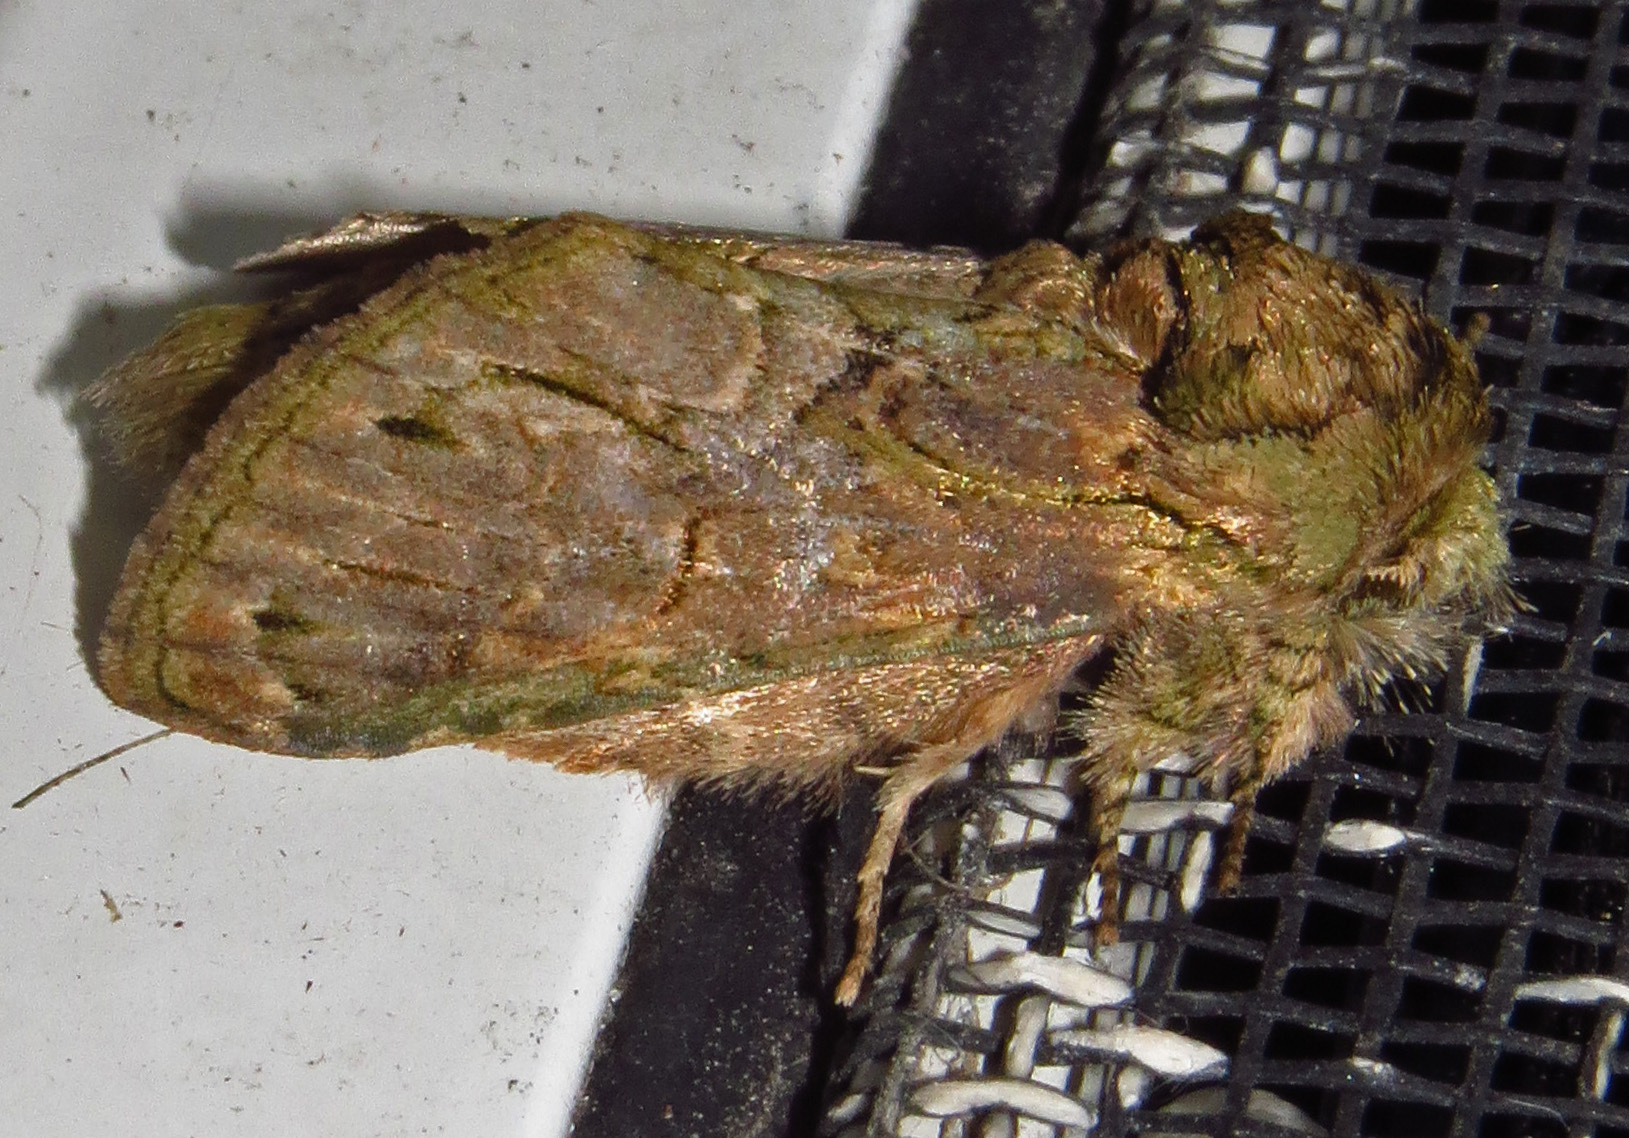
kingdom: Animalia
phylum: Arthropoda
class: Insecta
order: Lepidoptera
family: Notodontidae
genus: Disphragis
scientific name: Disphragis
